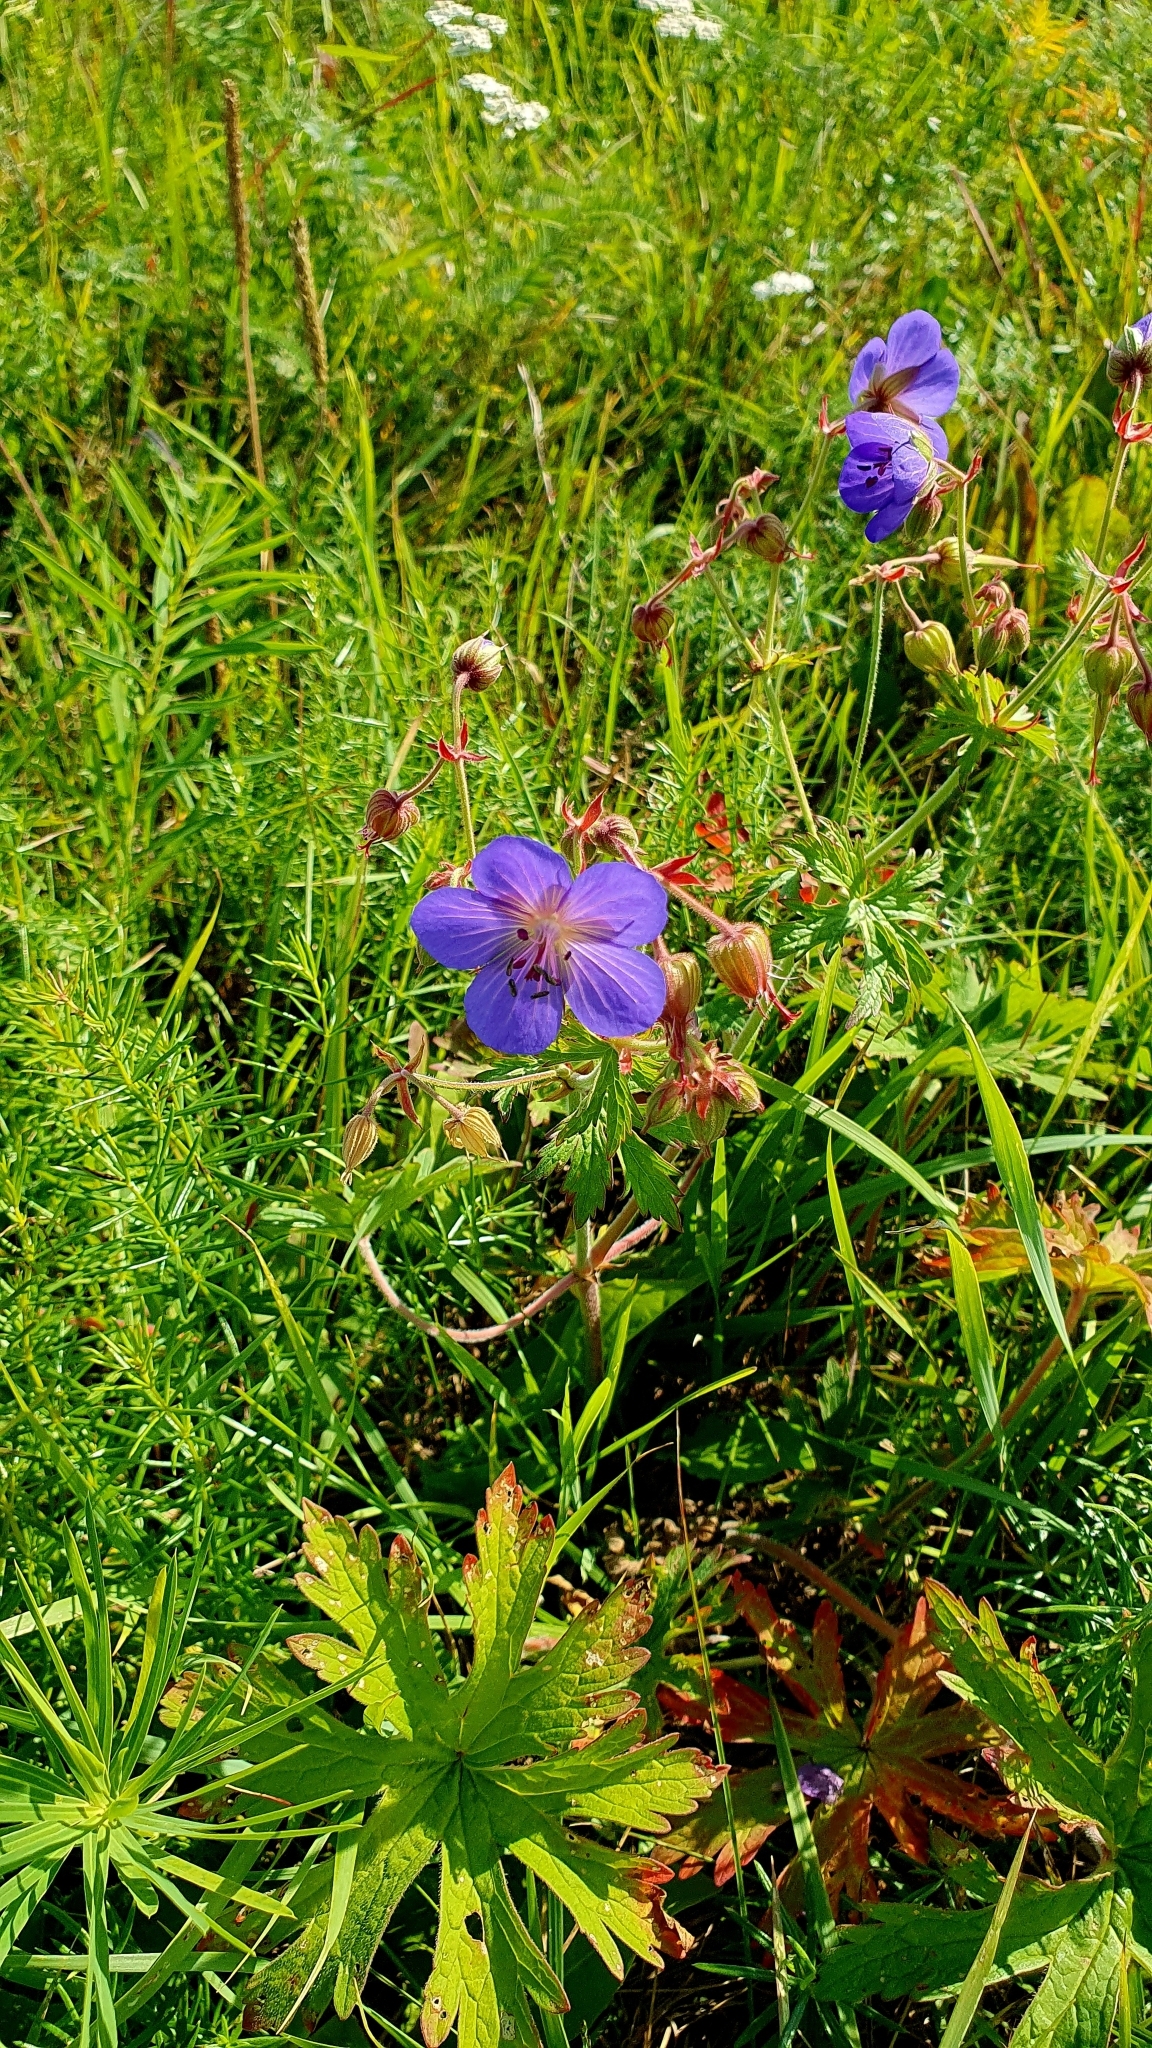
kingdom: Plantae
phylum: Tracheophyta
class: Magnoliopsida
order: Geraniales
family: Geraniaceae
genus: Geranium
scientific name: Geranium pratense
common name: Meadow crane's-bill
